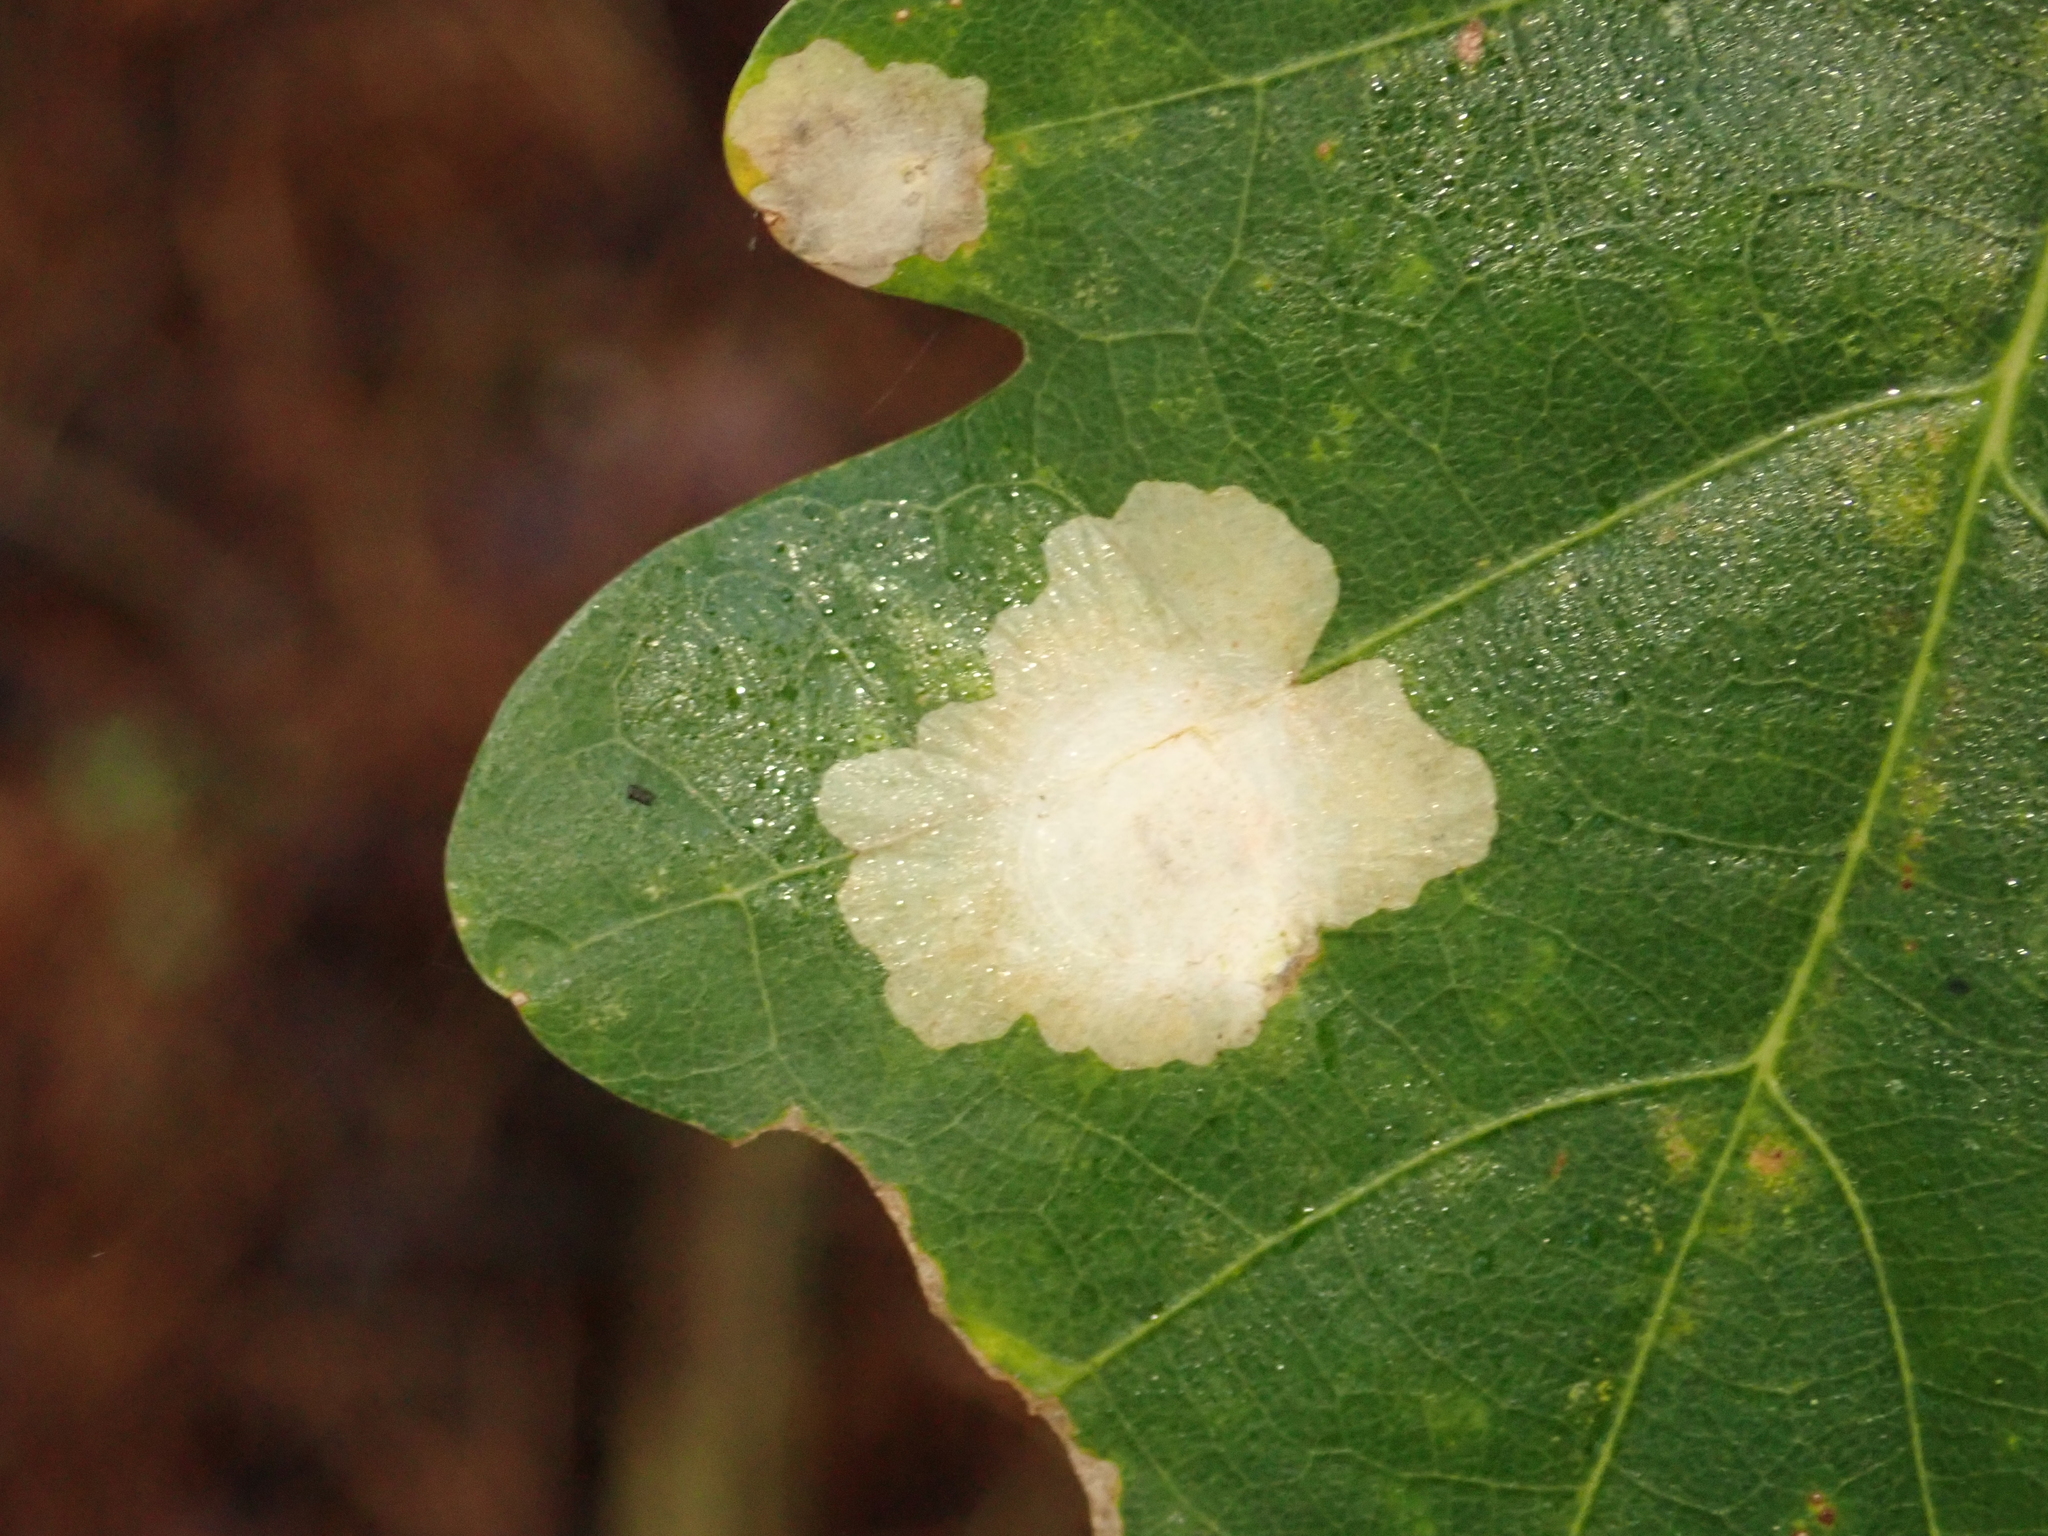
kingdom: Animalia
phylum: Arthropoda
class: Insecta
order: Lepidoptera
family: Tischeriidae
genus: Tischeria
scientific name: Tischeria ekebladella
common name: Oak carl
